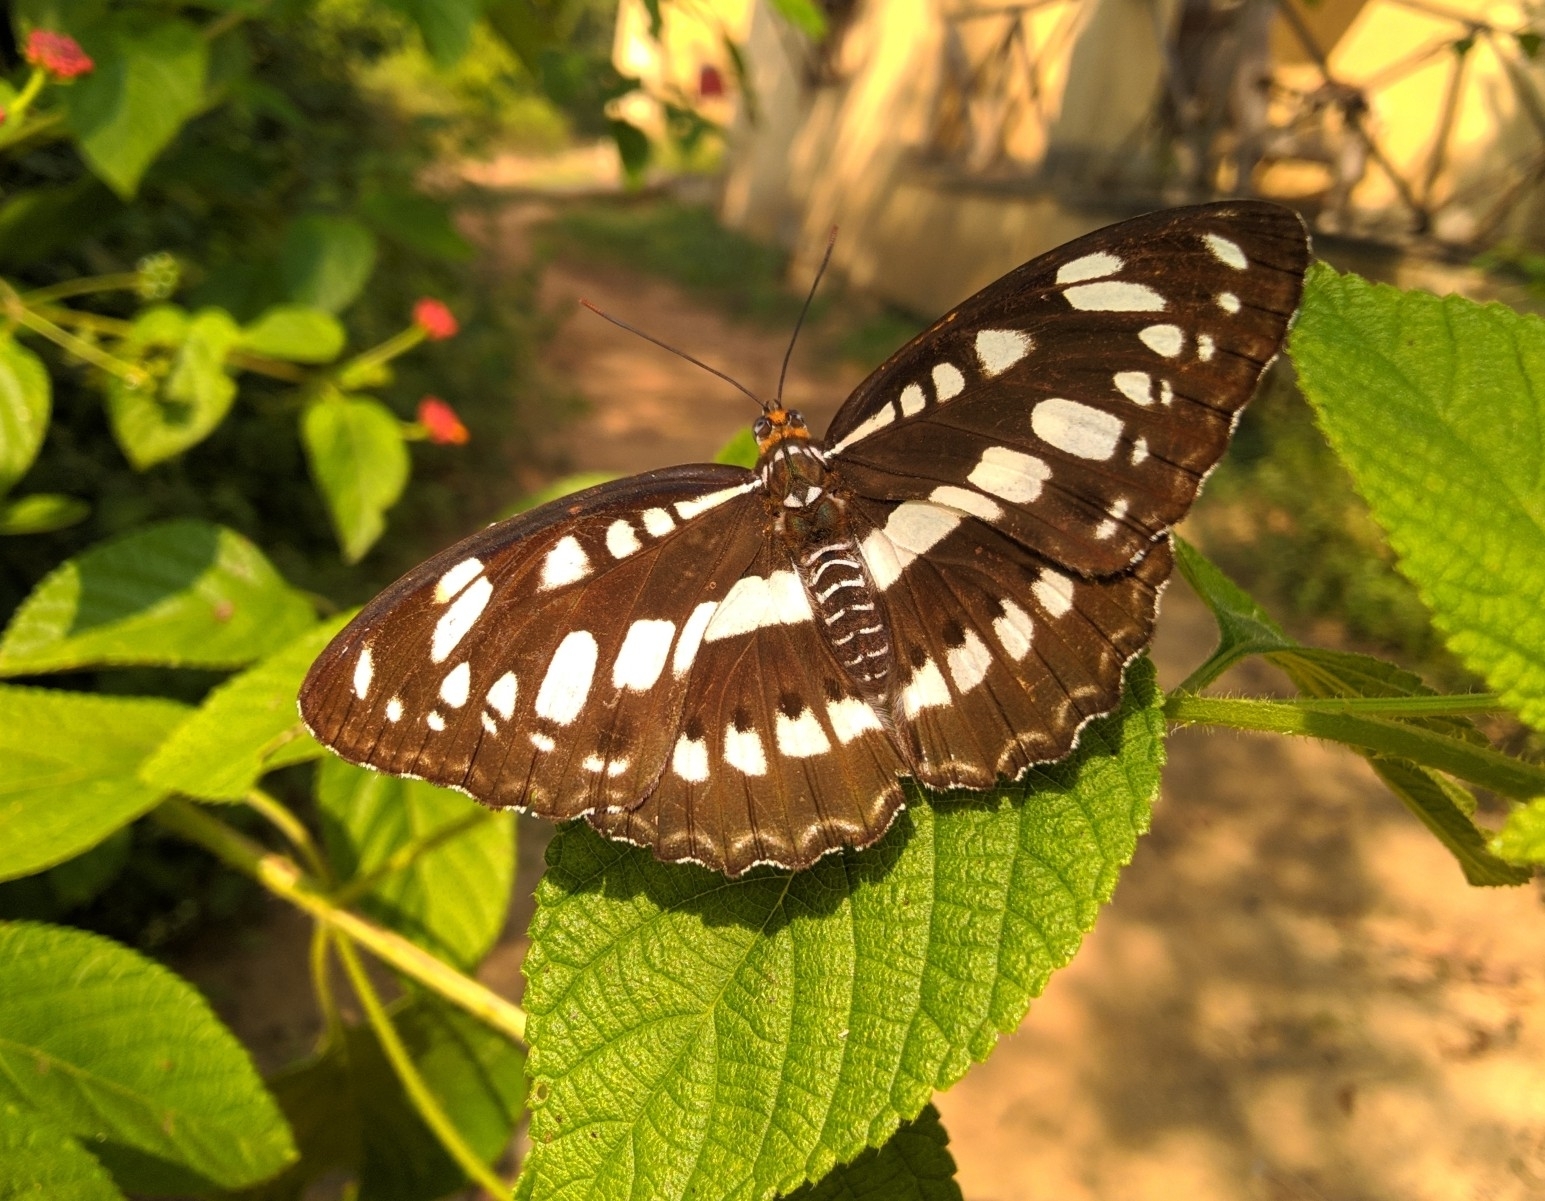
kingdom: Animalia
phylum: Arthropoda
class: Insecta
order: Lepidoptera
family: Nymphalidae
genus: Parathyma
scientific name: Parathyma perius
